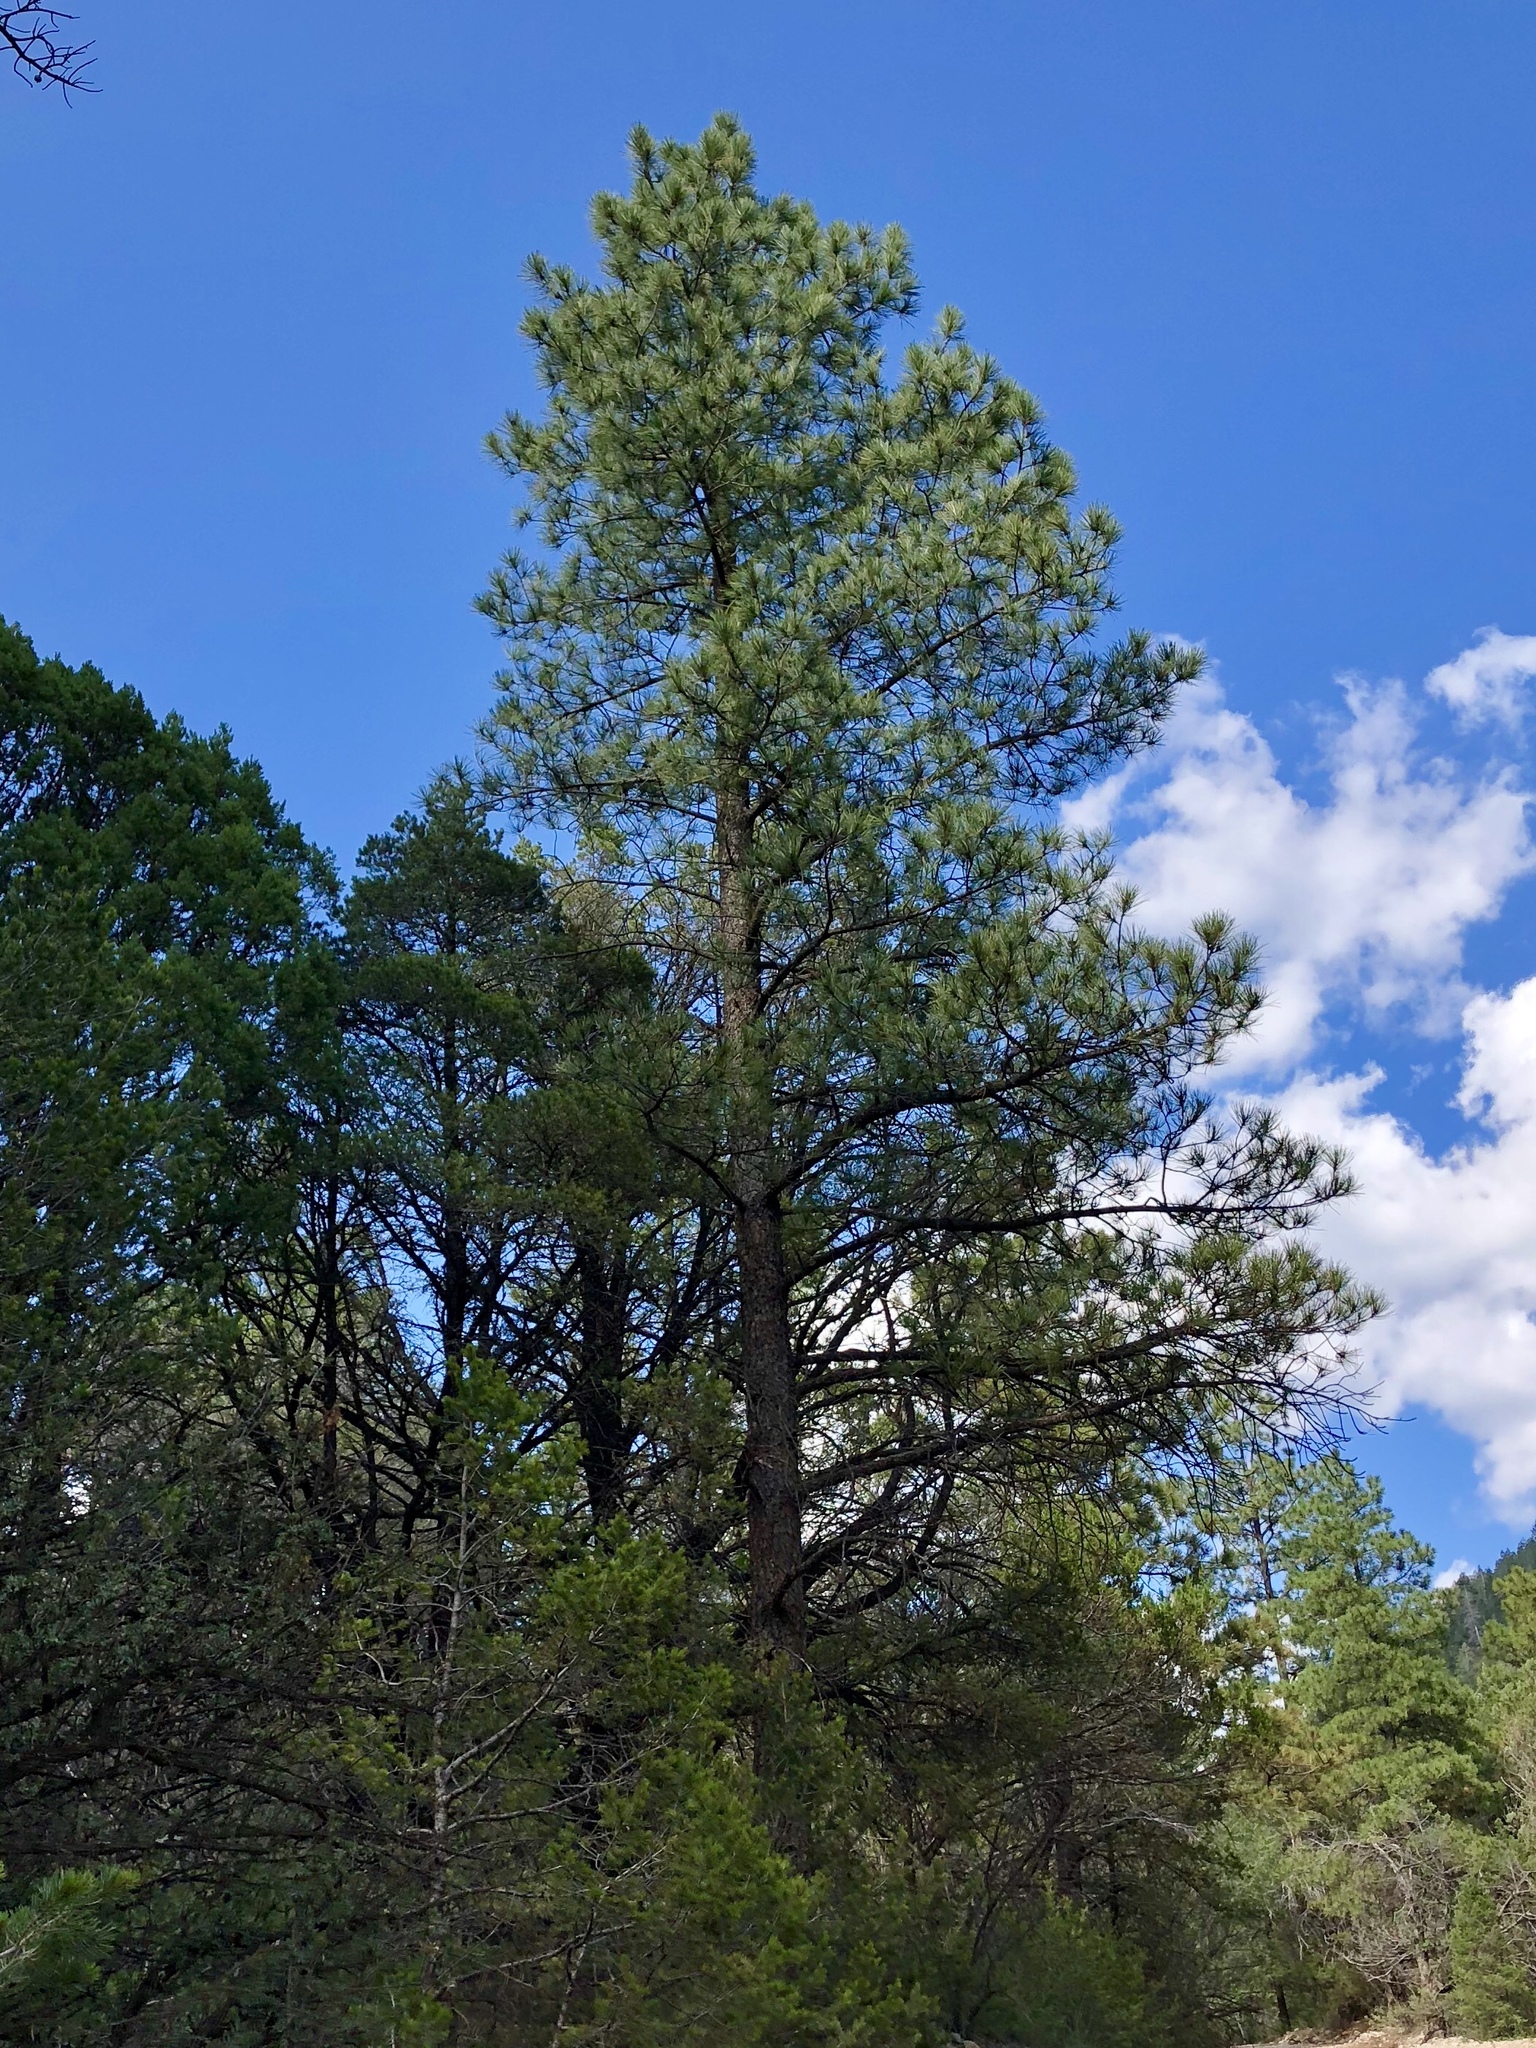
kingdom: Plantae
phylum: Tracheophyta
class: Pinopsida
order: Pinales
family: Pinaceae
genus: Pinus
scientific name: Pinus ponderosa
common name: Western yellow-pine
